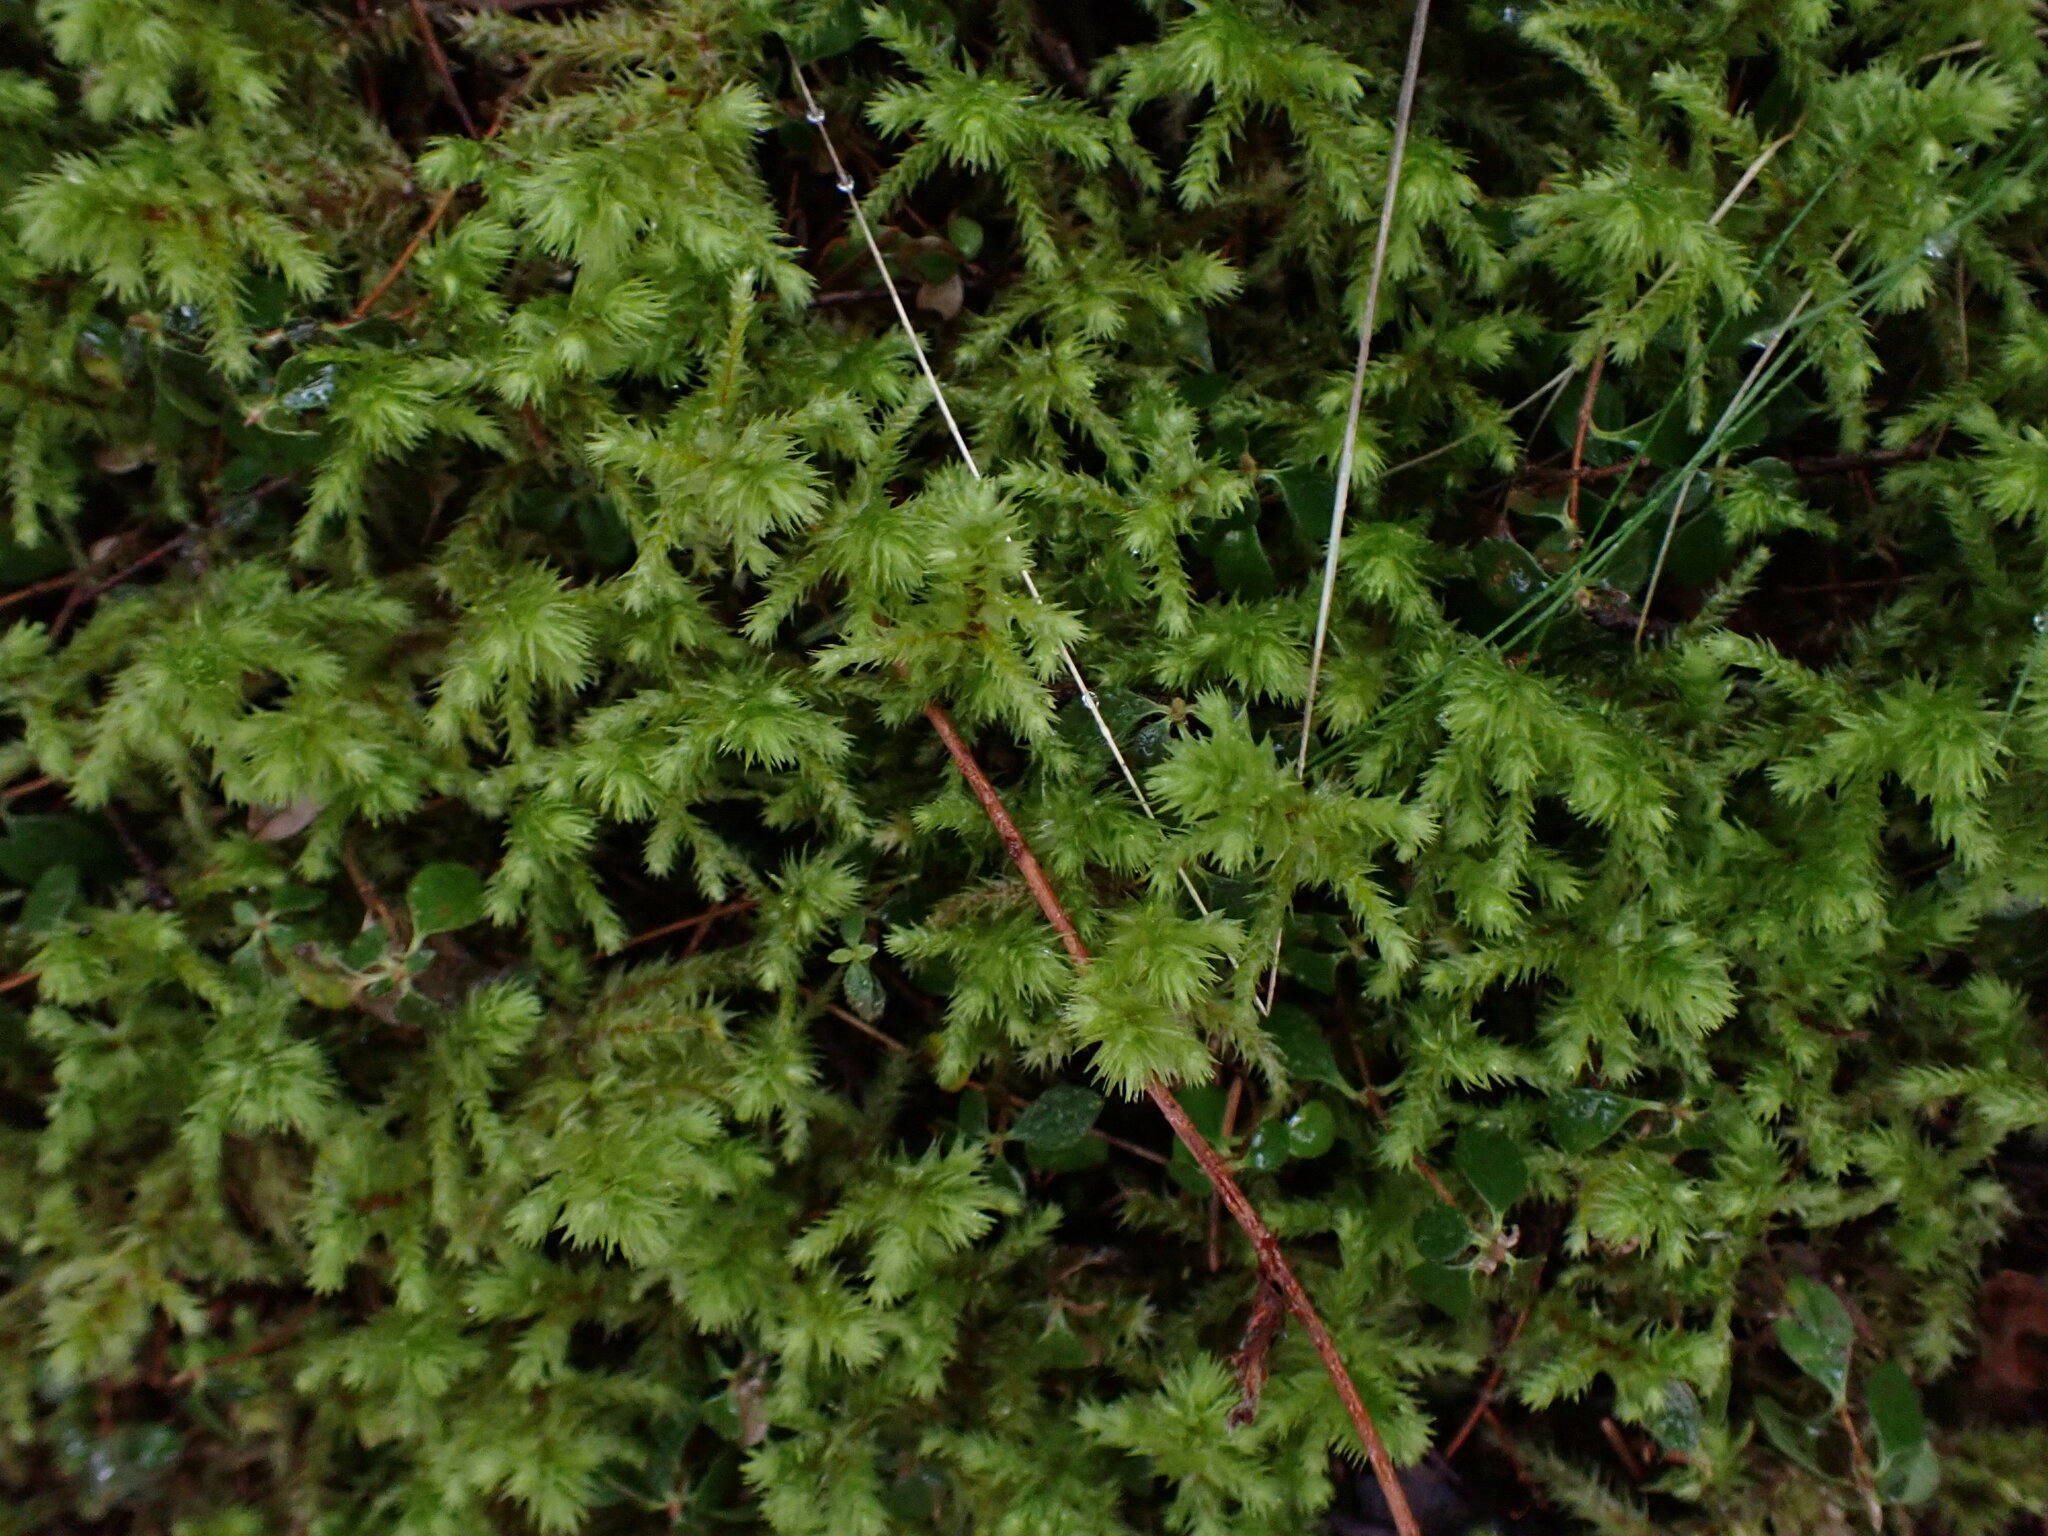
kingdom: Plantae
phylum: Bryophyta
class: Bryopsida
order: Hypnales
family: Hylocomiaceae
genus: Hylocomiadelphus
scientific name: Hylocomiadelphus triquetrus
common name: Rough goose neck moss
